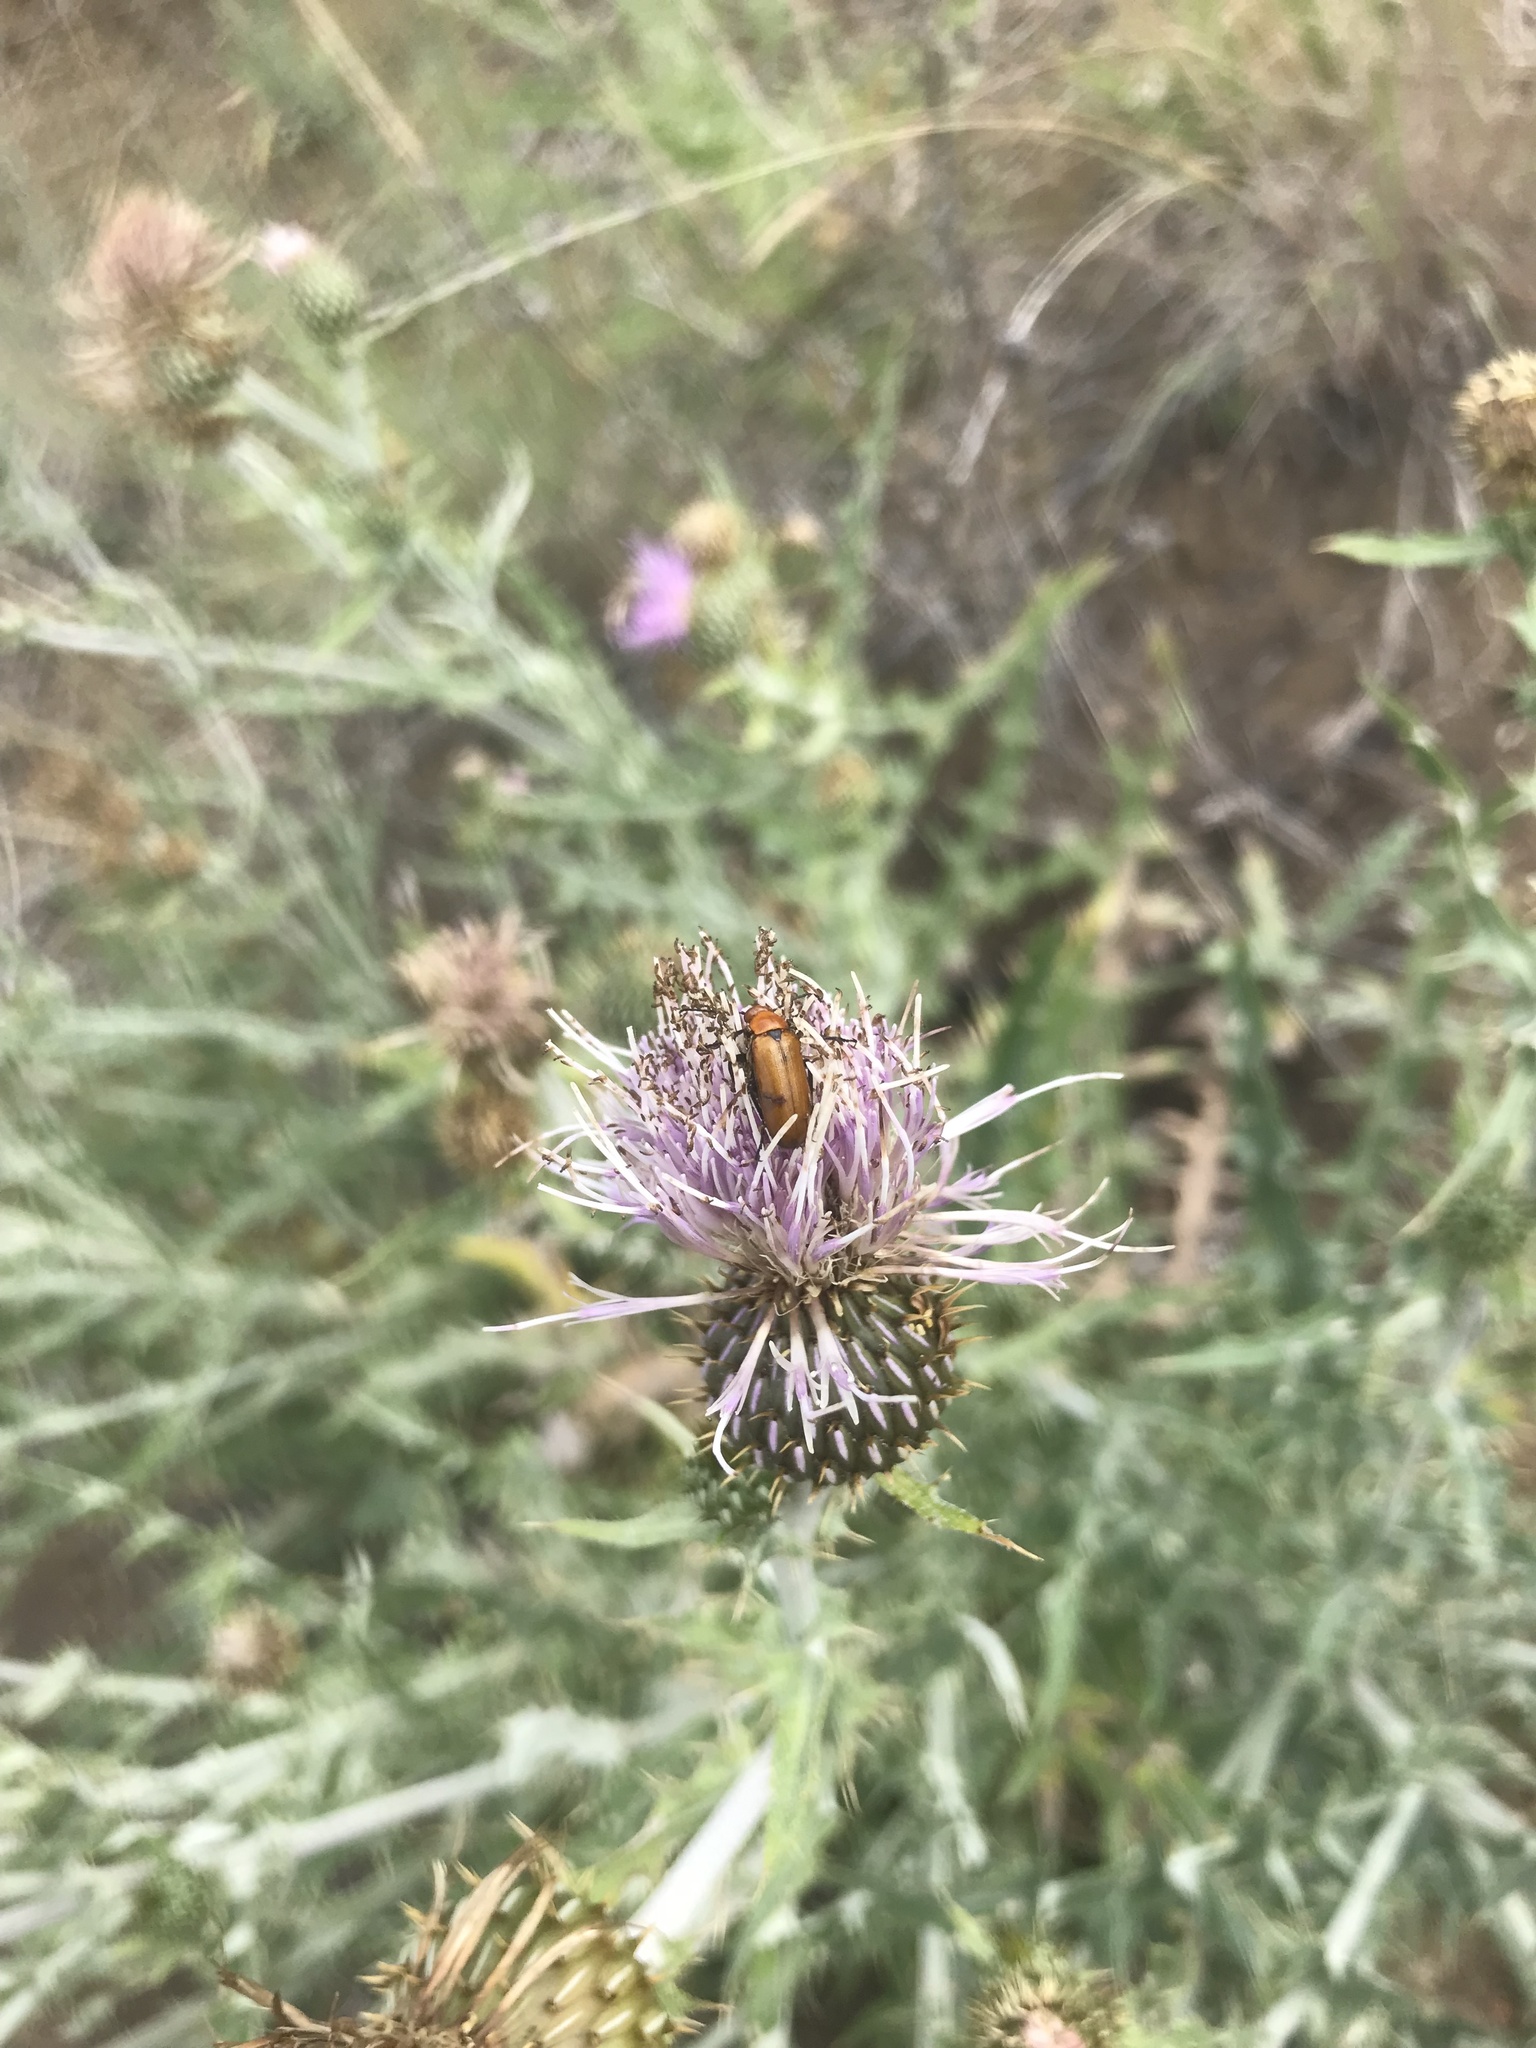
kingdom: Animalia
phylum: Arthropoda
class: Insecta
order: Coleoptera
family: Meloidae
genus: Nemognatha
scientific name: Nemognatha lutea
